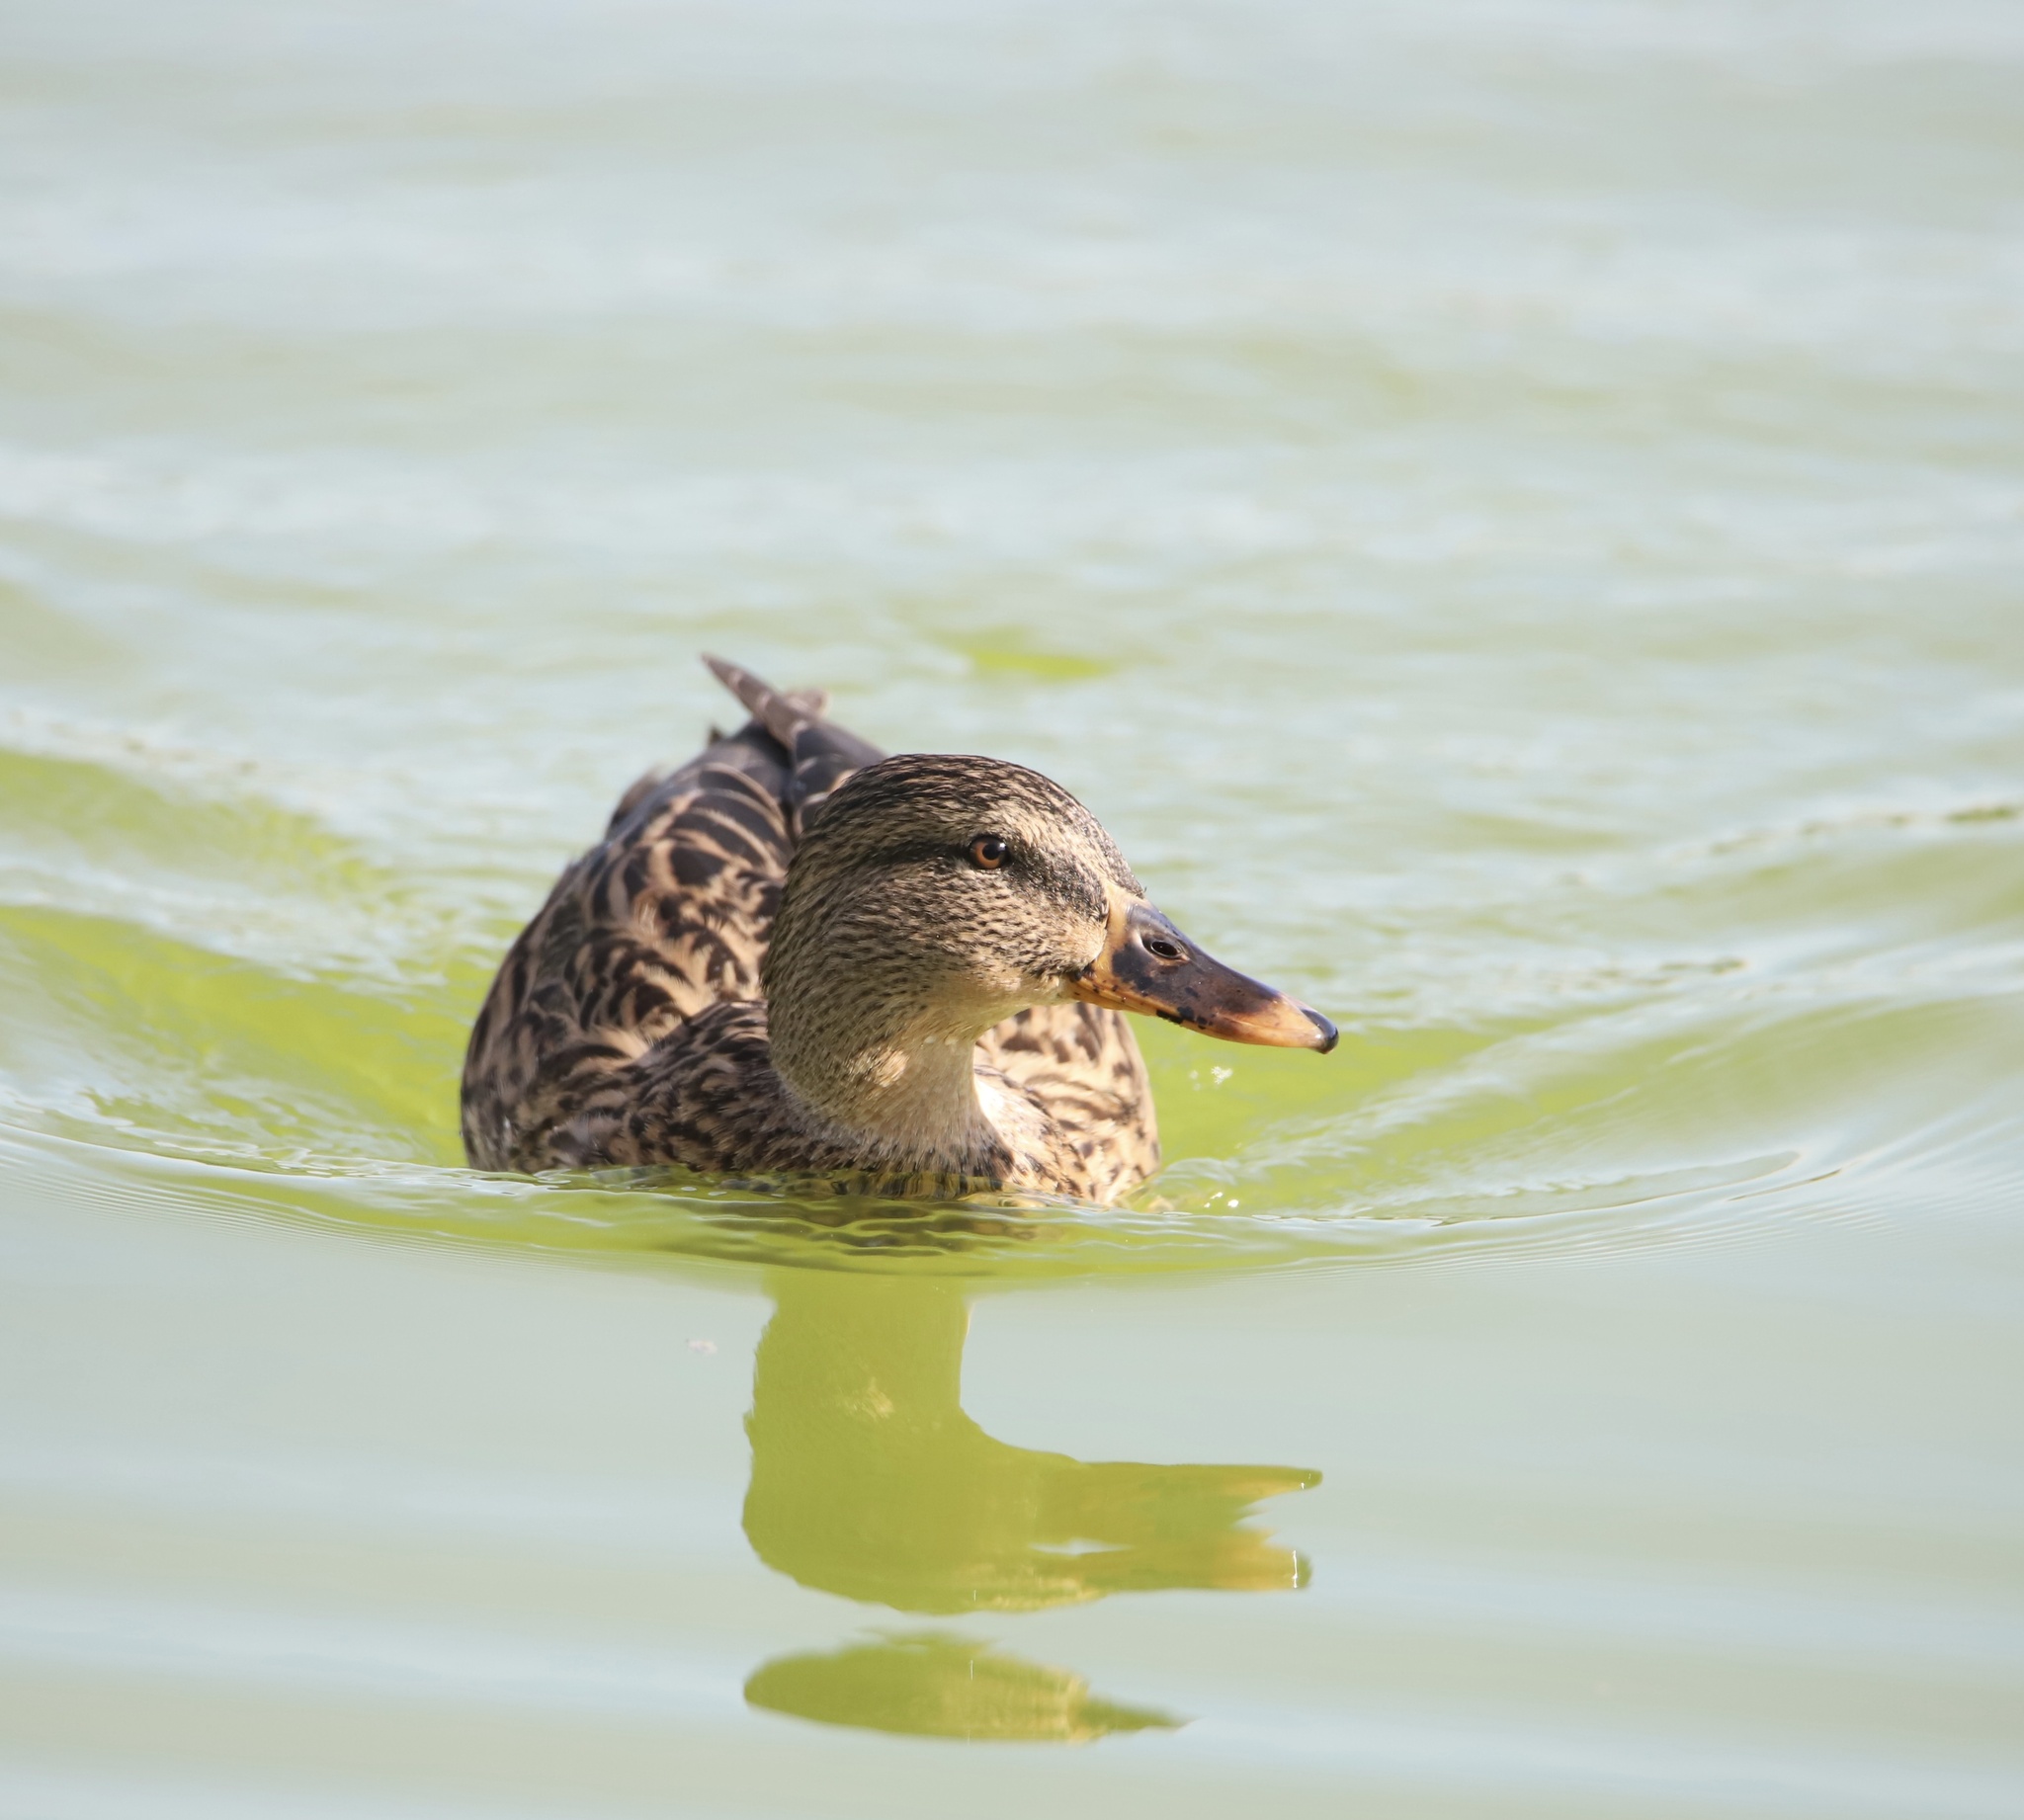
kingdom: Animalia
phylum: Chordata
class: Aves
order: Anseriformes
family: Anatidae
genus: Anas
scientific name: Anas platyrhynchos
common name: Mallard
